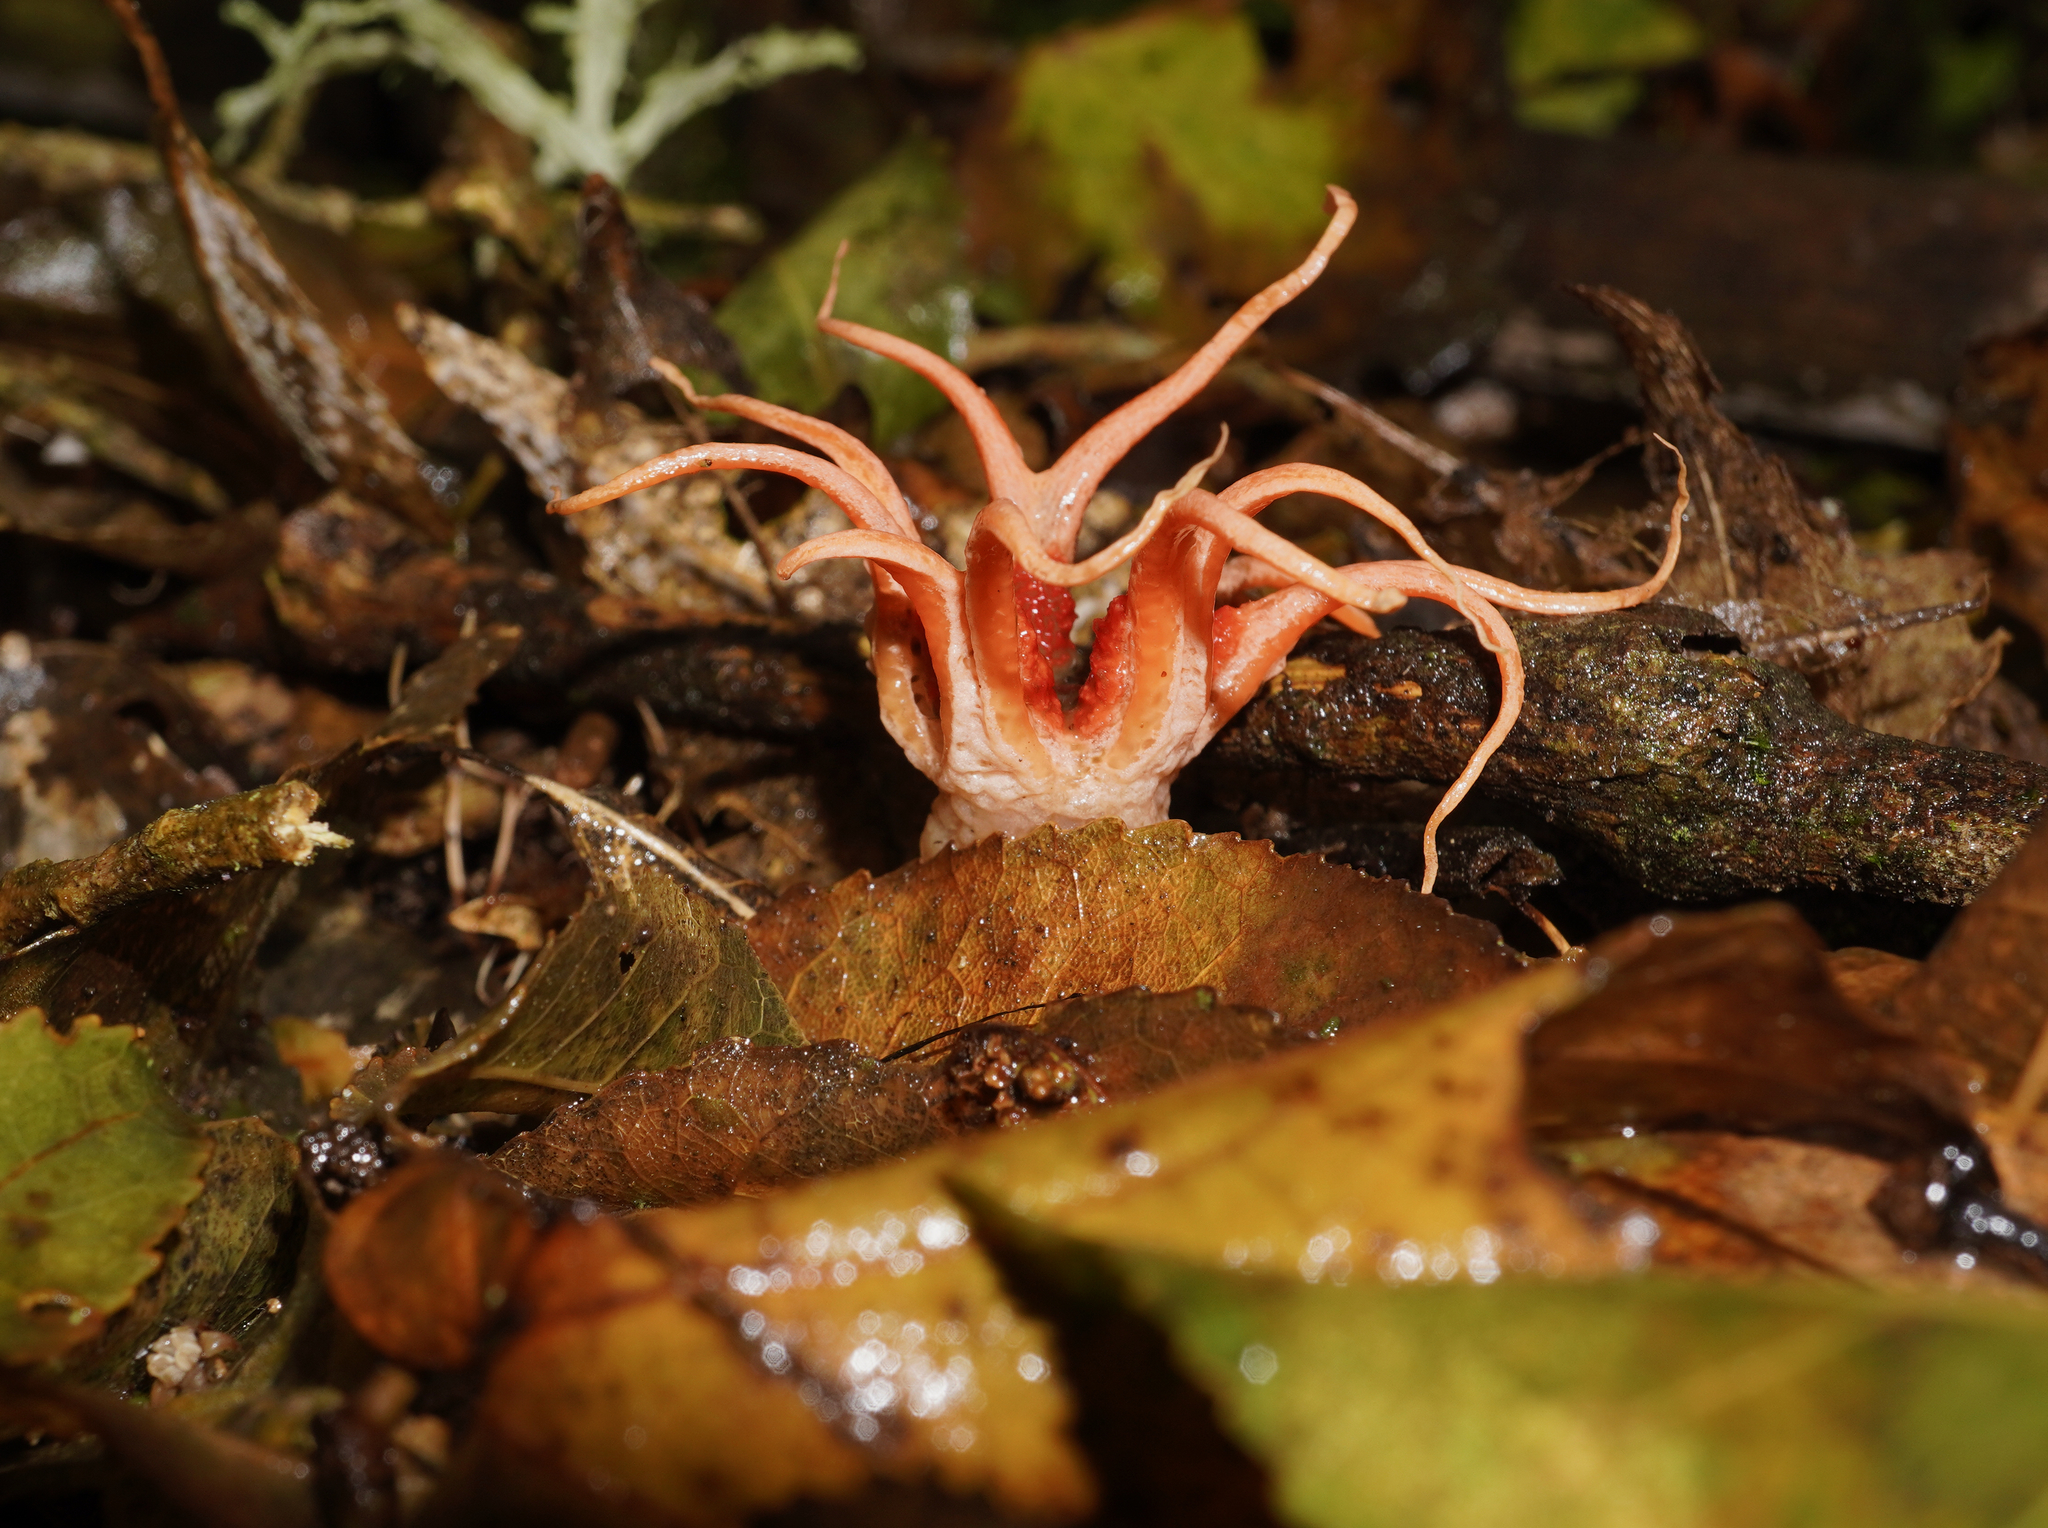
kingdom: Fungi
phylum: Basidiomycota
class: Agaricomycetes
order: Phallales
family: Phallaceae
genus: Aseroe
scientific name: Aseroe rubra
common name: Starfish fungus
